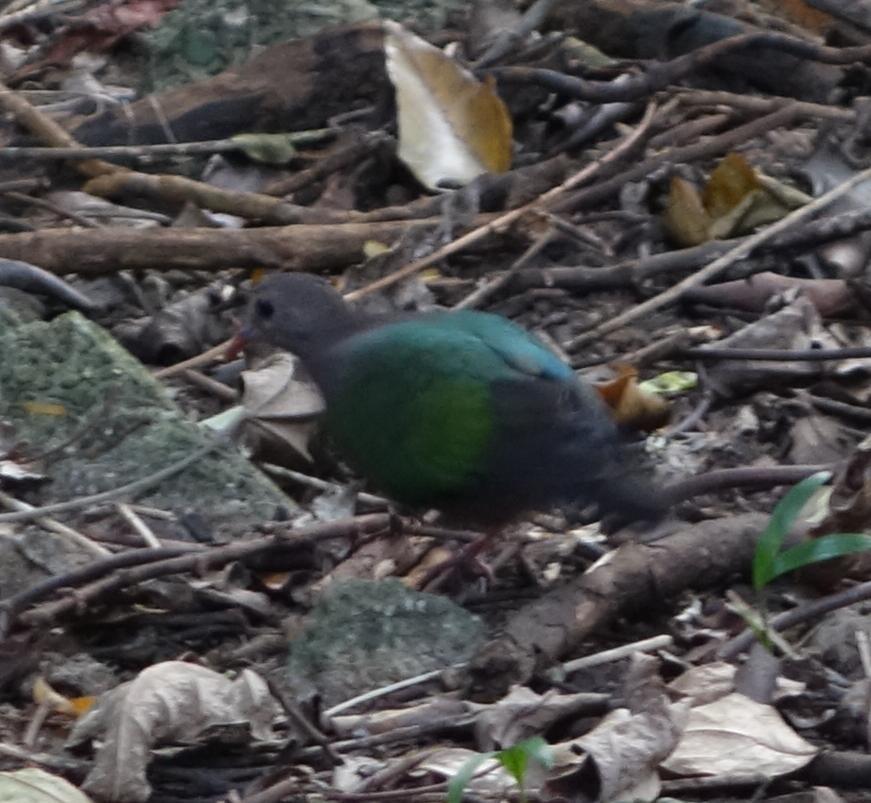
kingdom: Animalia
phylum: Chordata
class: Aves
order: Columbiformes
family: Columbidae
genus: Chalcophaps
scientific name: Chalcophaps indica
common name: Common emerald dove
